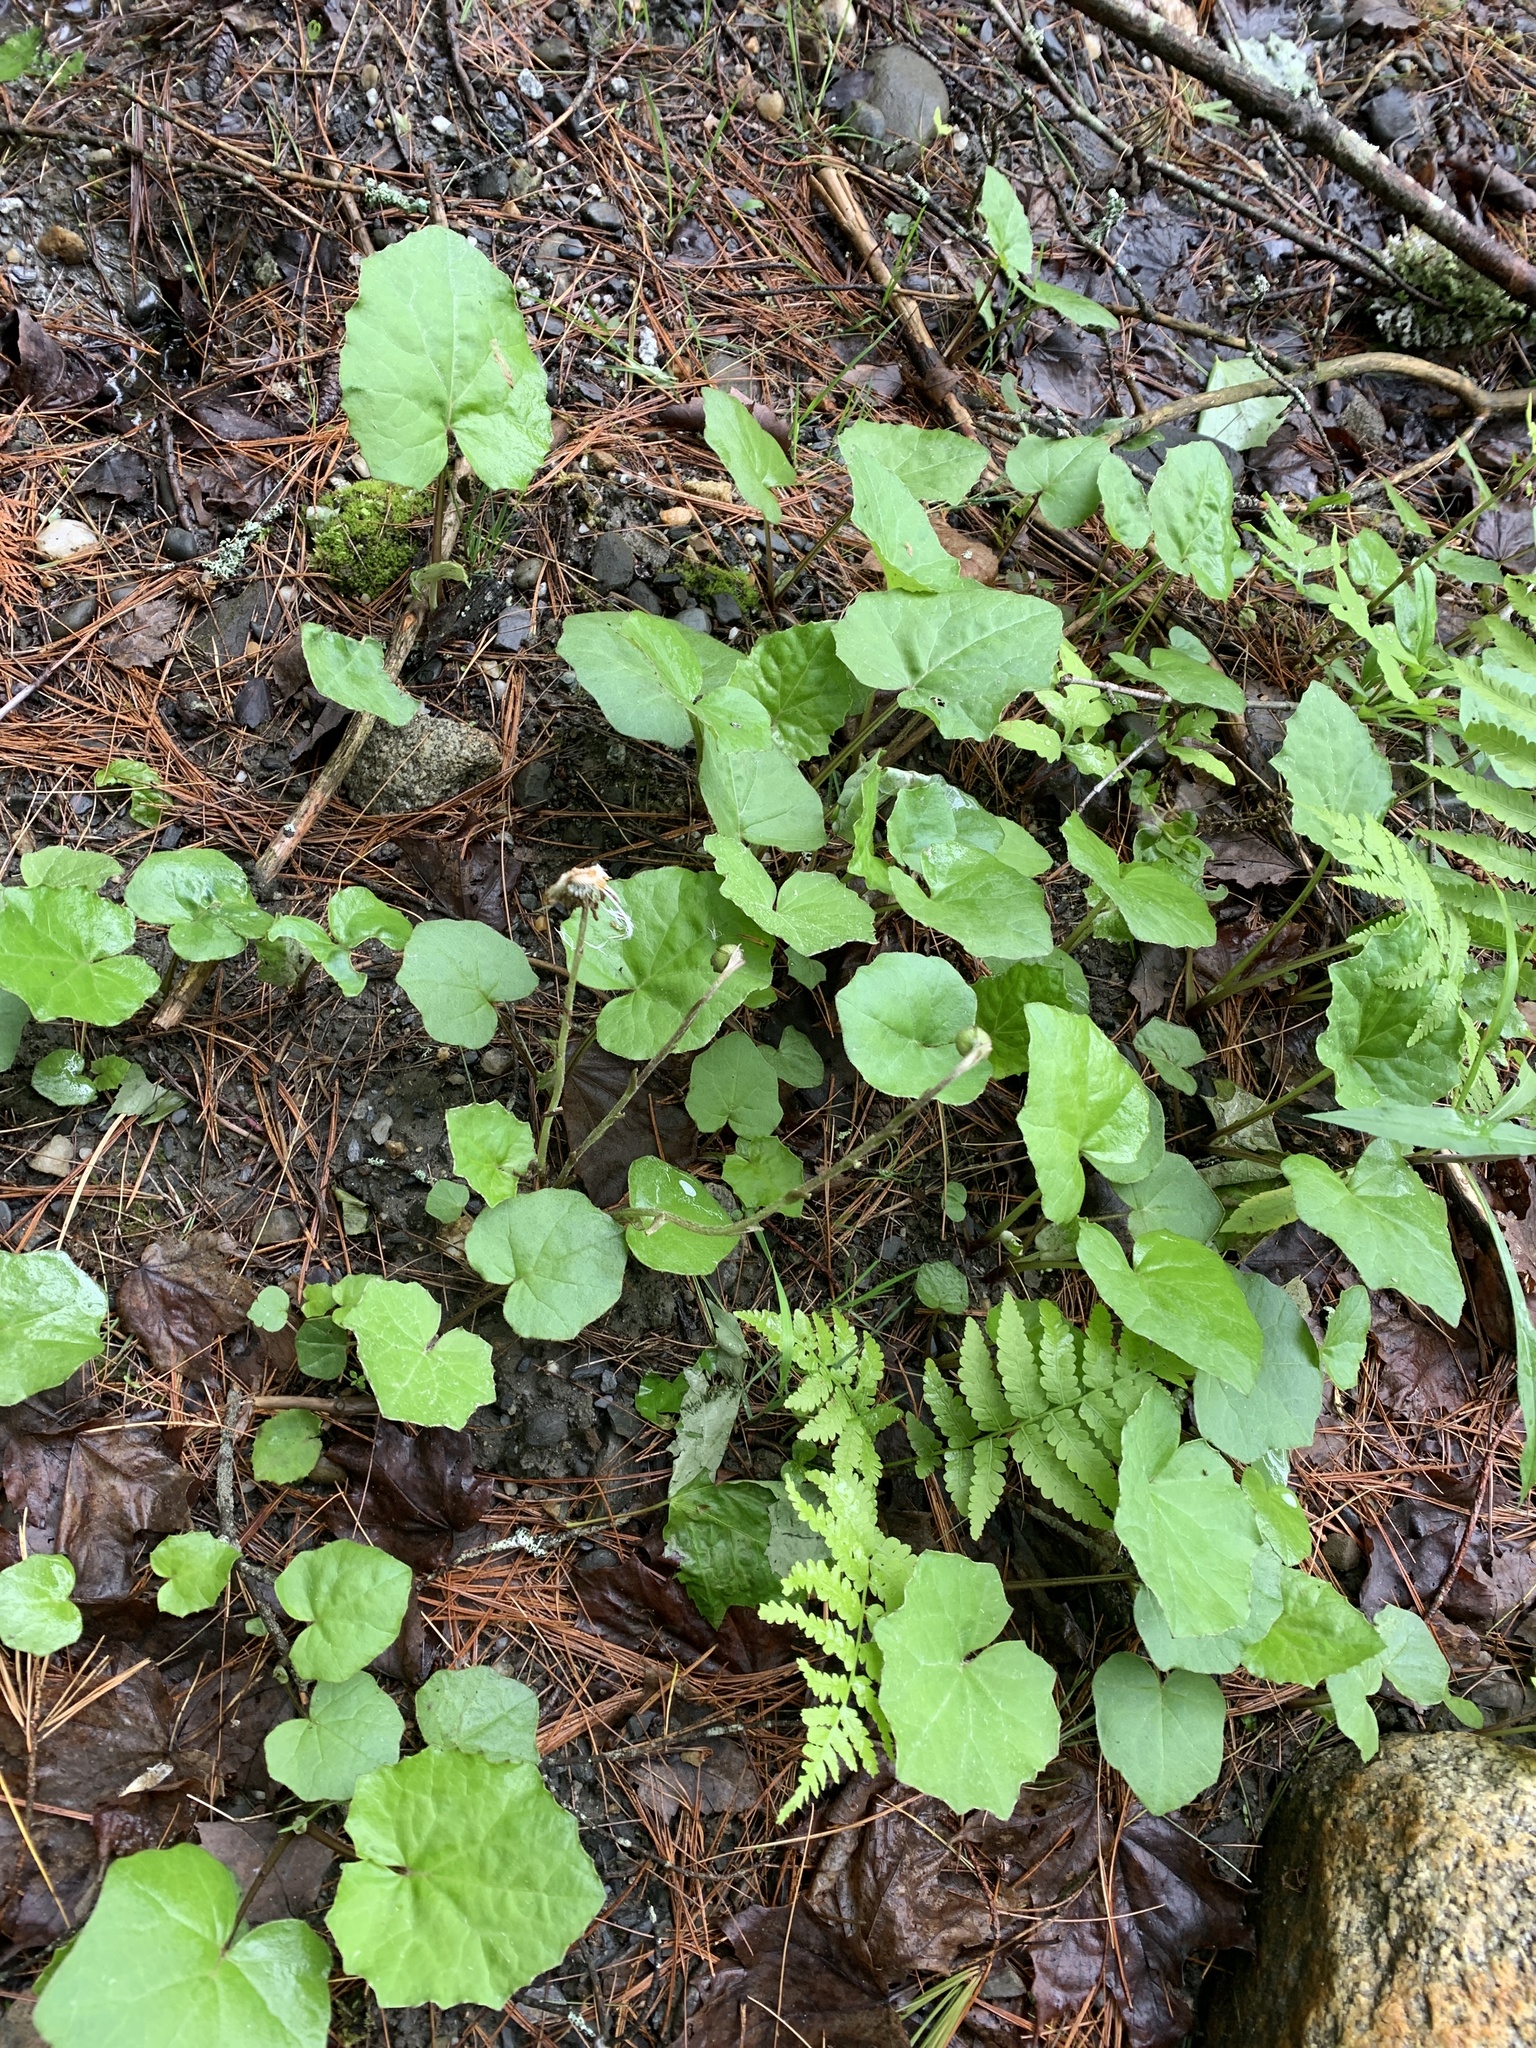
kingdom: Plantae
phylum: Tracheophyta
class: Magnoliopsida
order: Asterales
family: Asteraceae
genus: Tussilago
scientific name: Tussilago farfara
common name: Coltsfoot
